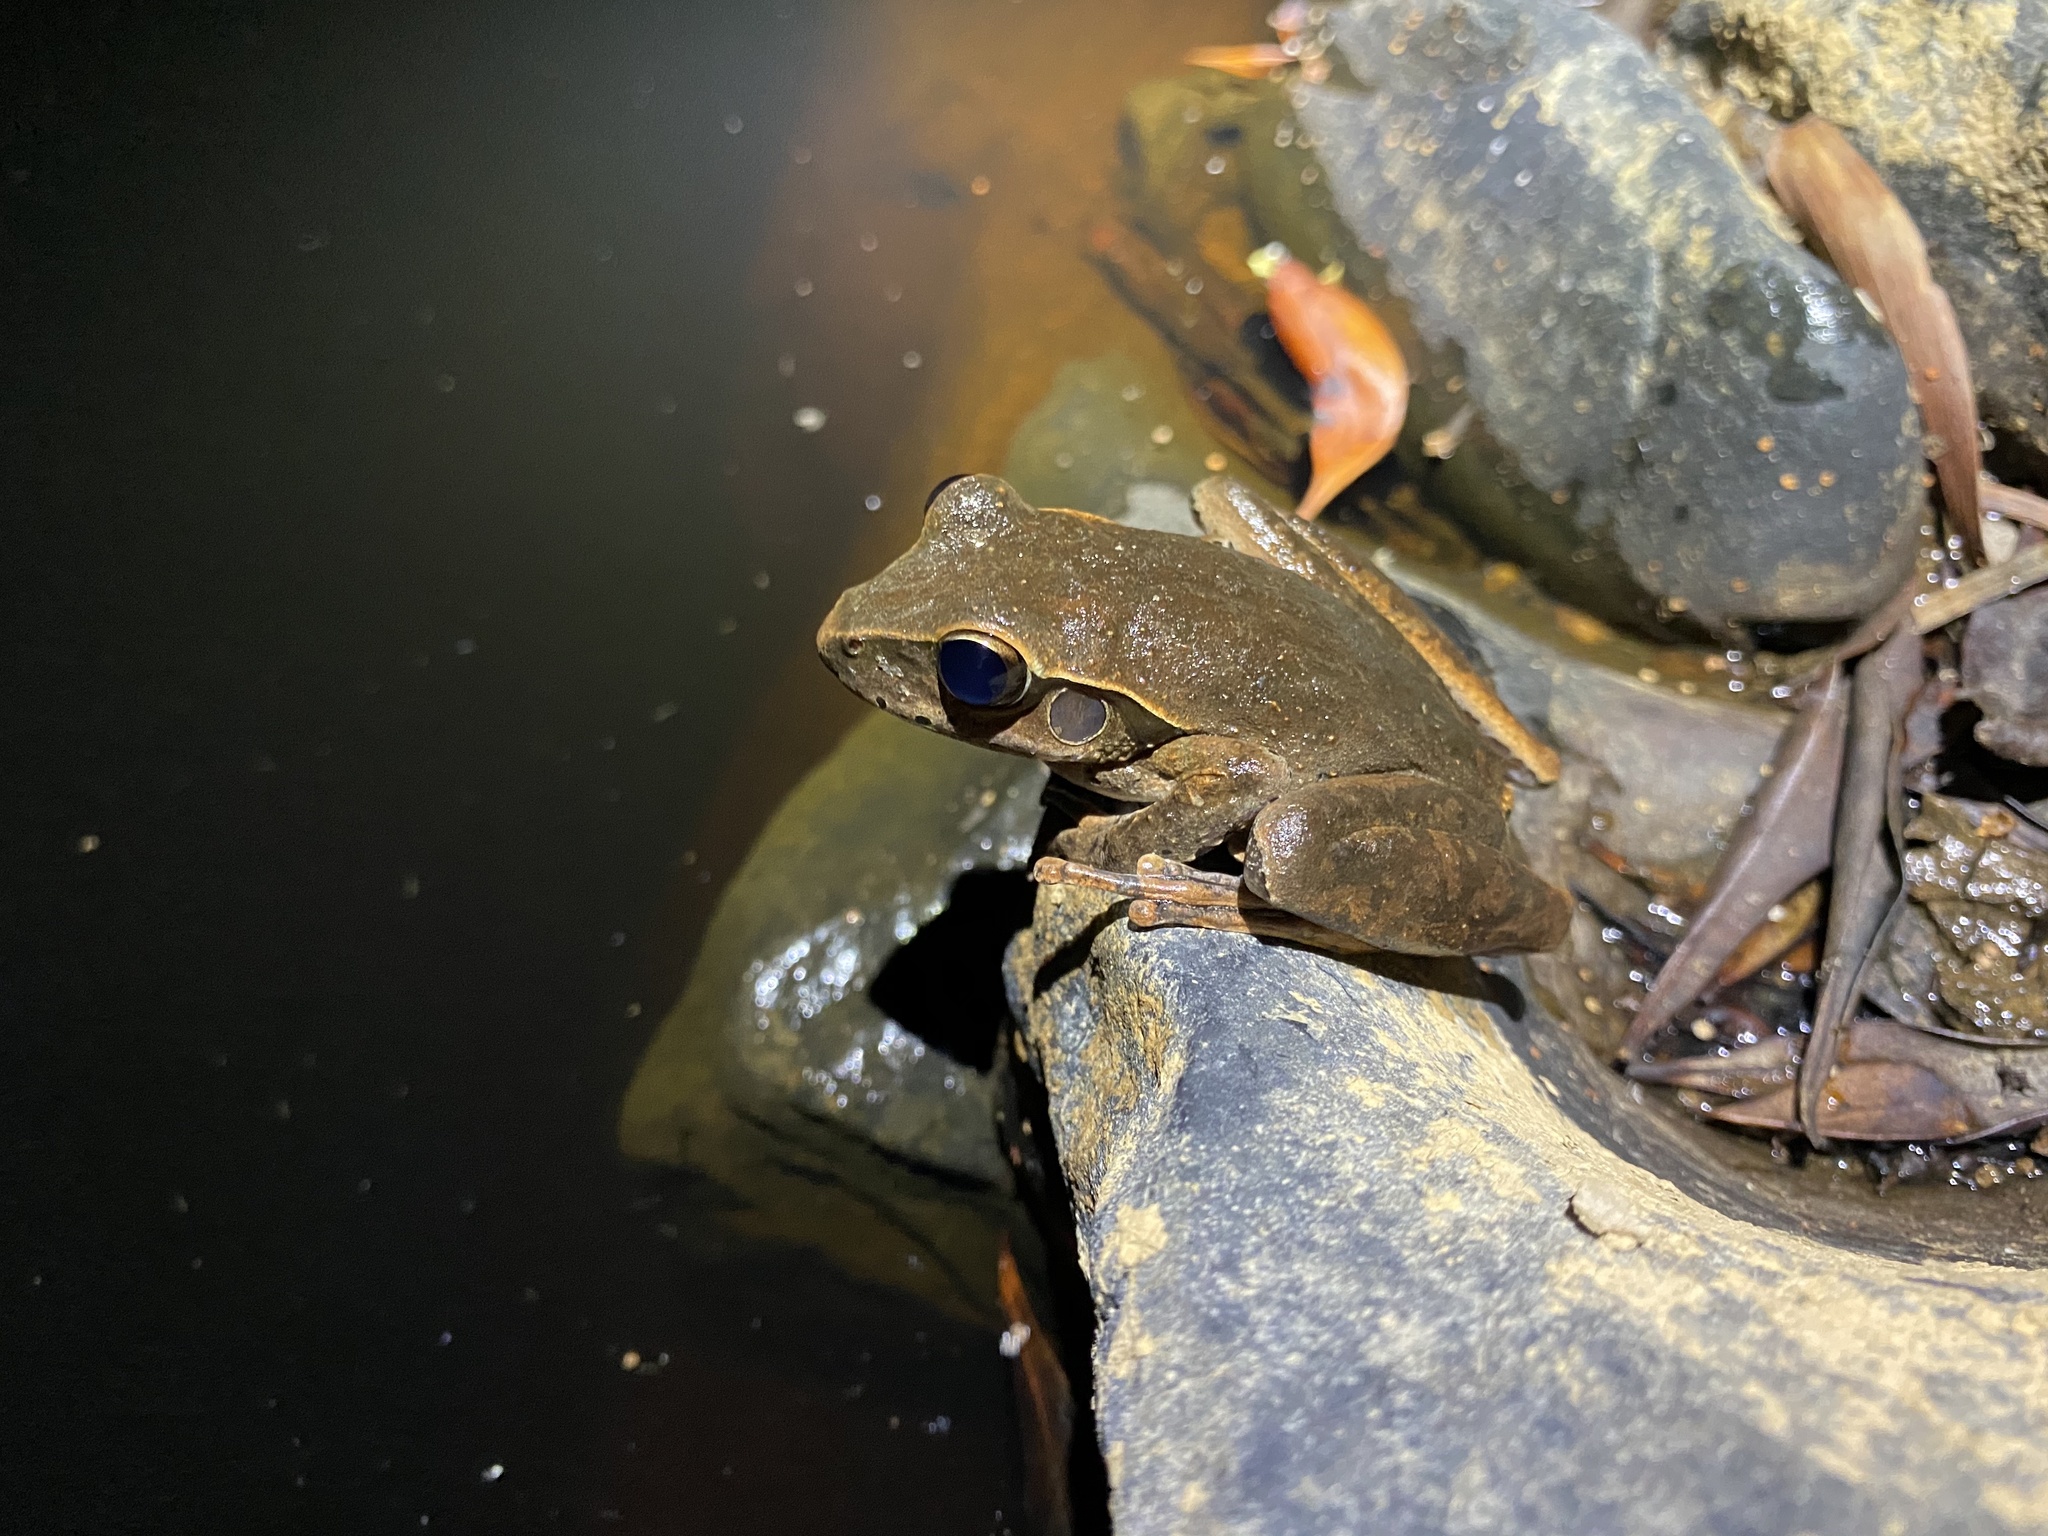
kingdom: Animalia
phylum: Chordata
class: Amphibia
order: Anura
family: Hylidae
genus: Ranoidea
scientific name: Ranoidea
